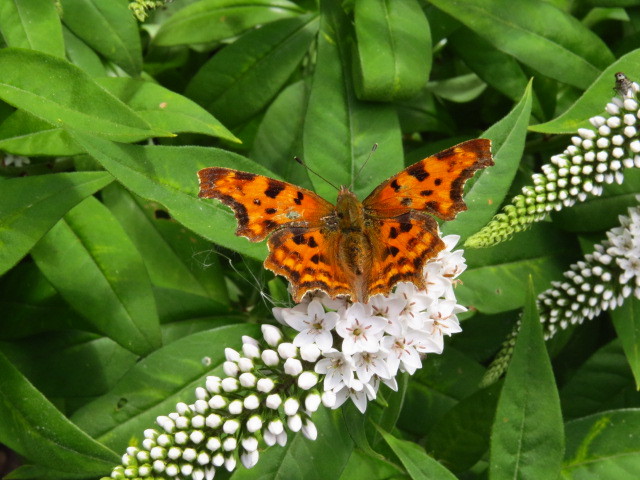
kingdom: Animalia
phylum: Arthropoda
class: Insecta
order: Lepidoptera
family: Nymphalidae
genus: Polygonia
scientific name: Polygonia c-album
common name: Comma
